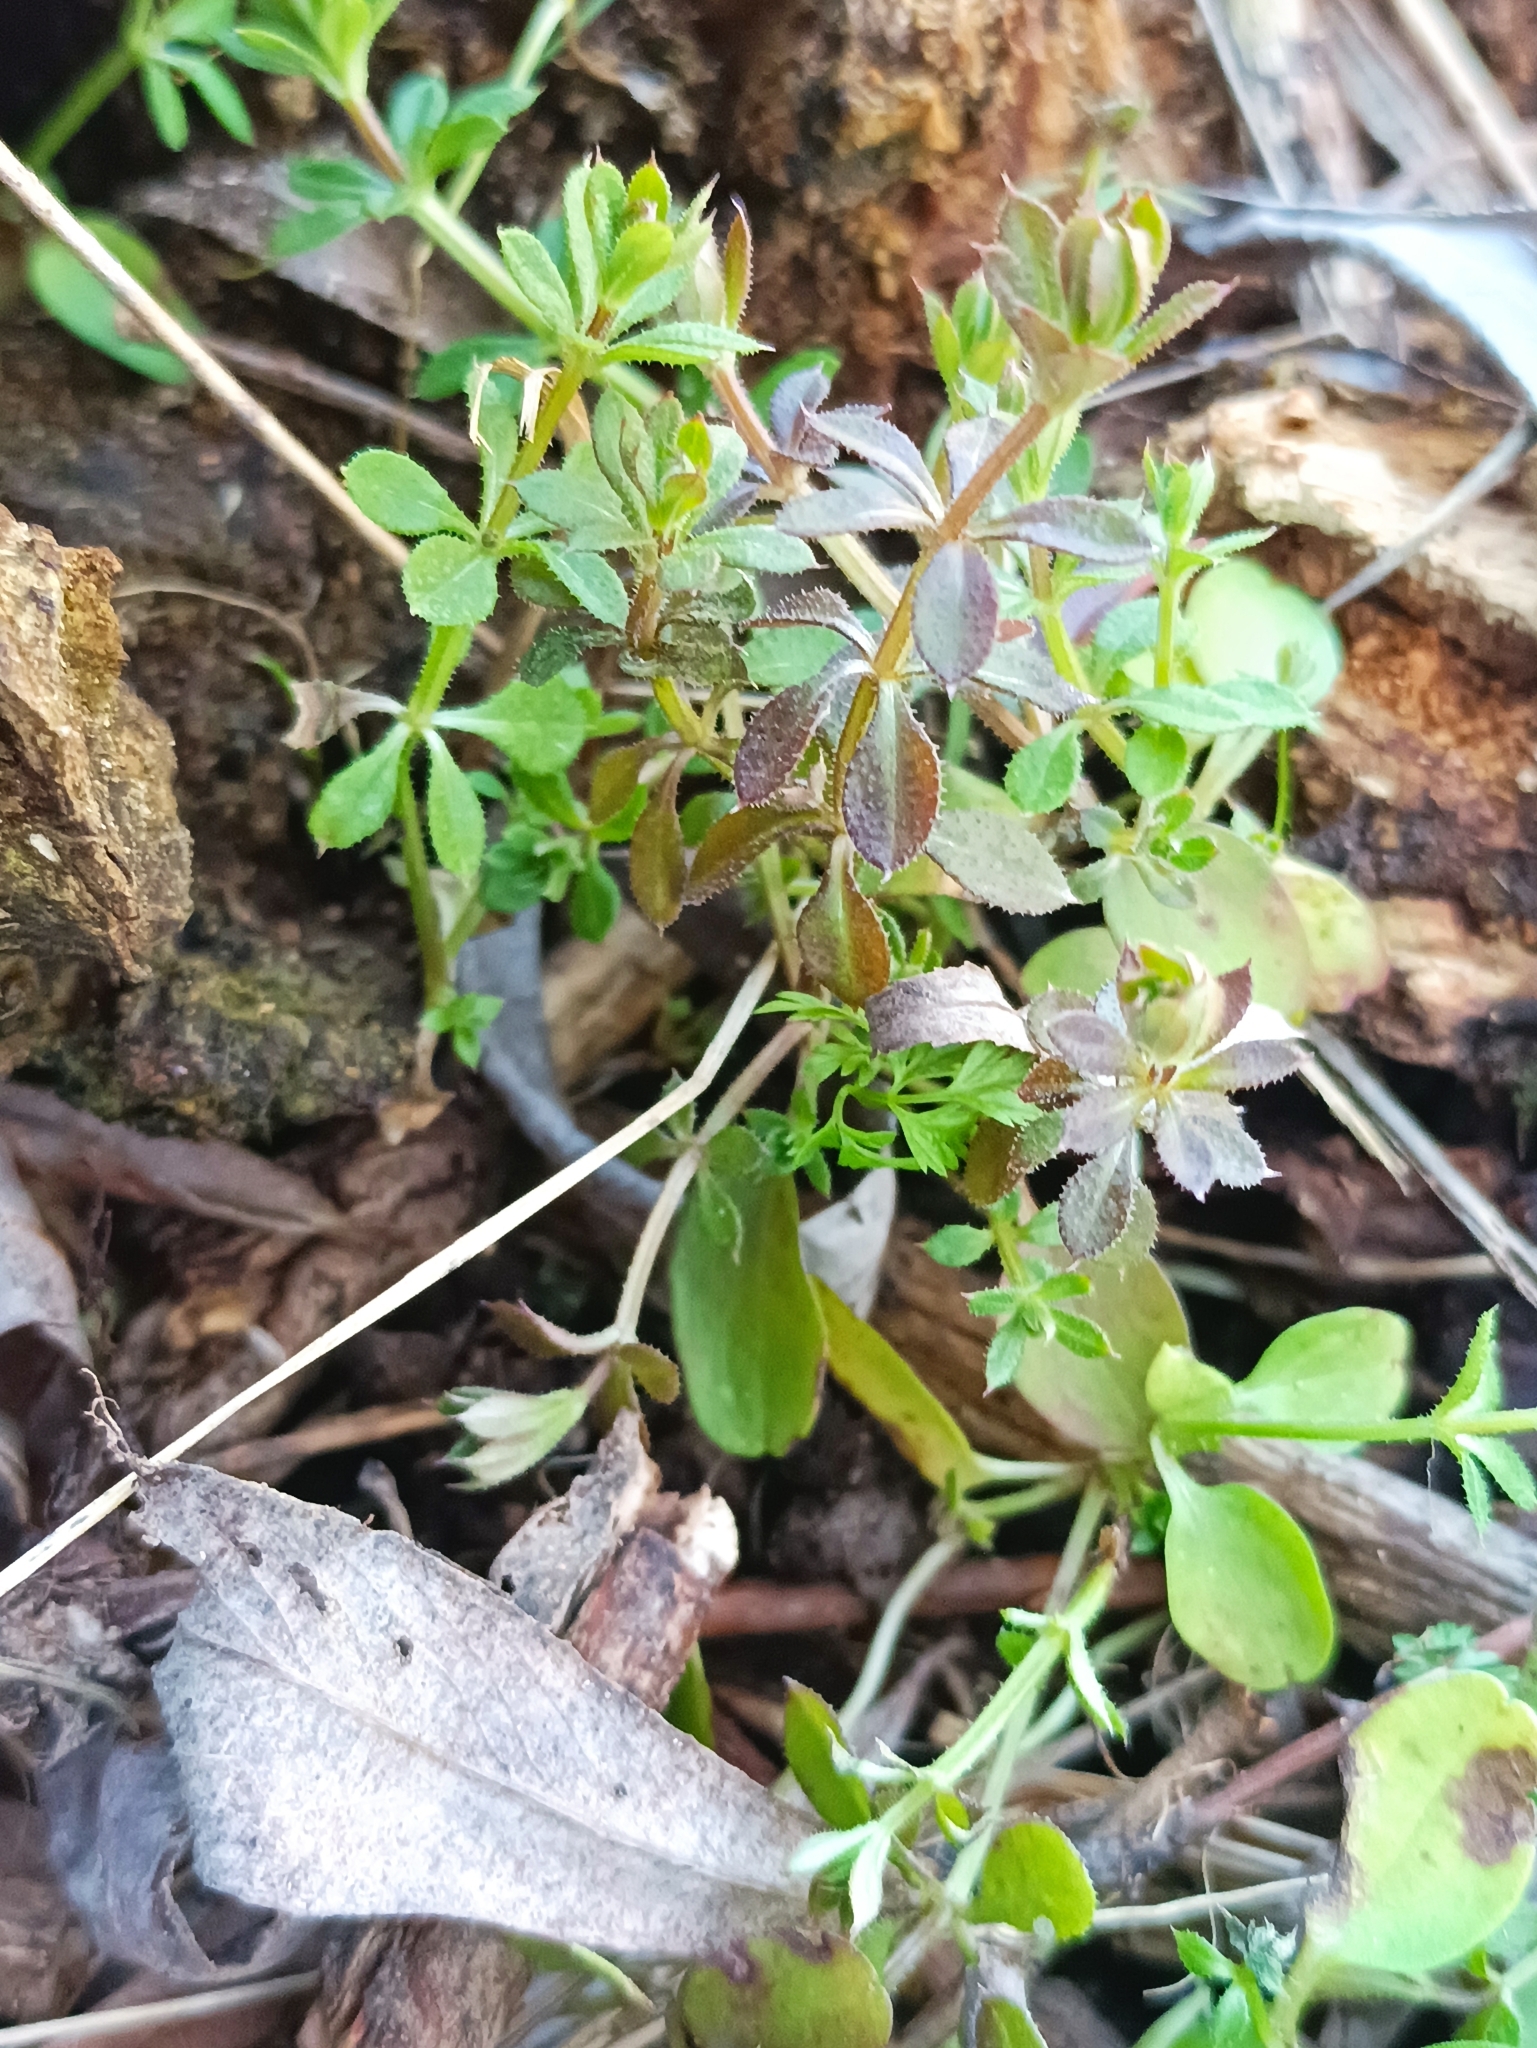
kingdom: Plantae
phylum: Tracheophyta
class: Magnoliopsida
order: Gentianales
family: Rubiaceae
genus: Galium
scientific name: Galium aparine
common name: Cleavers
